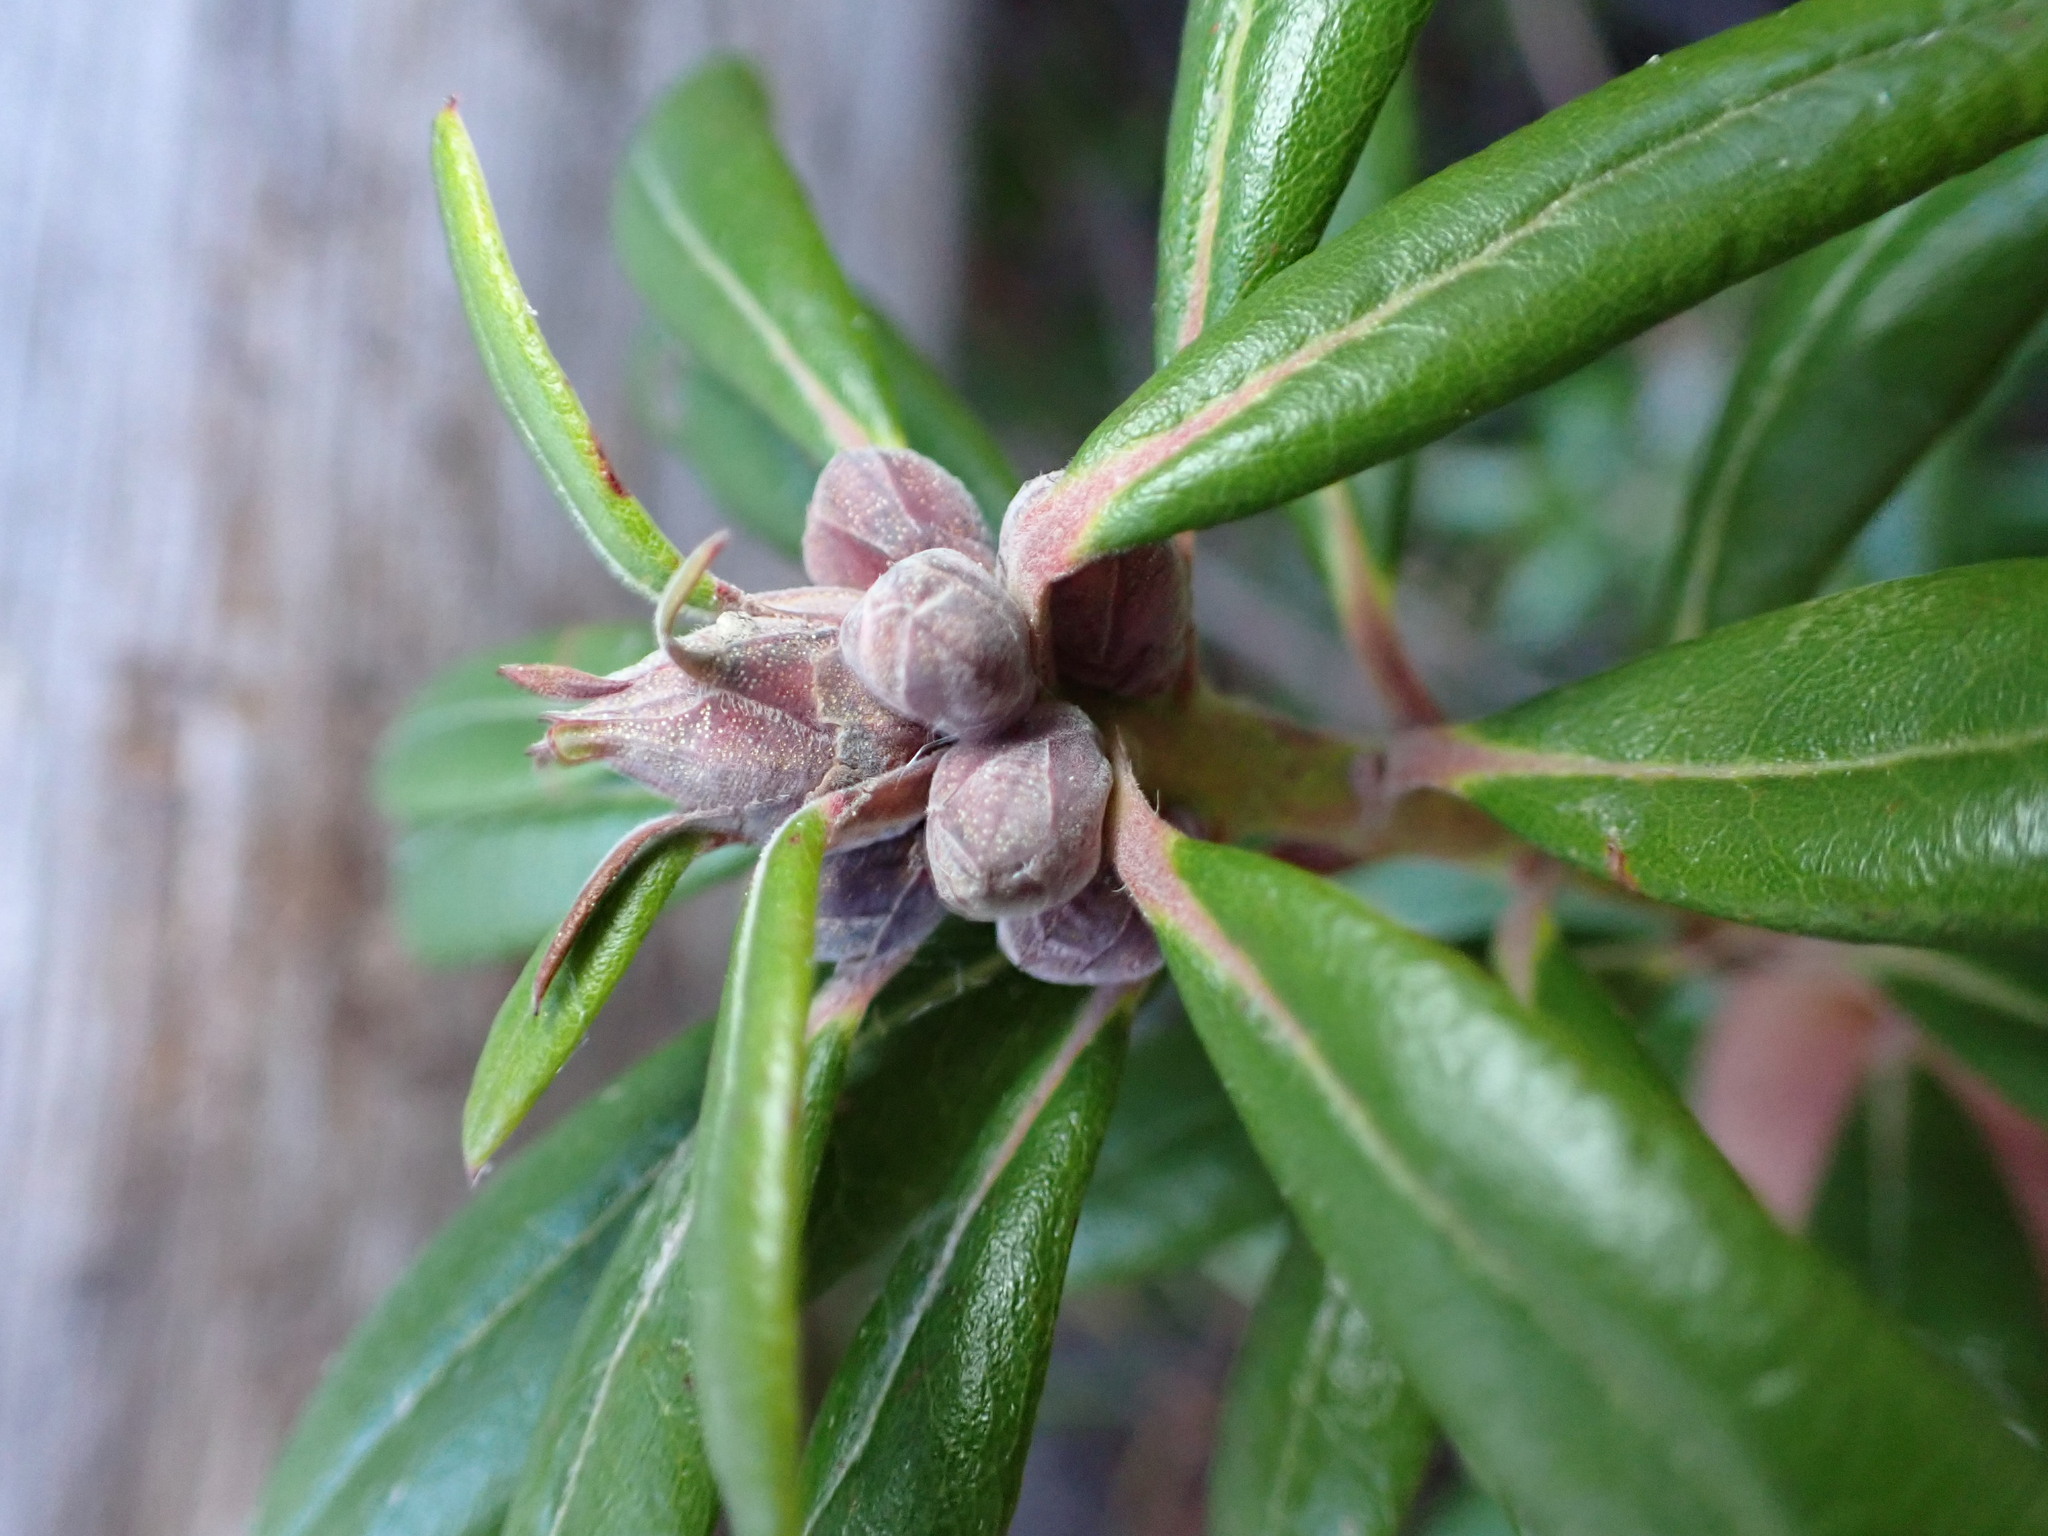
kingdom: Plantae
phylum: Tracheophyta
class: Magnoliopsida
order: Ericales
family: Ericaceae
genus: Rhododendron
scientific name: Rhododendron columbianum
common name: Western labrador tea
